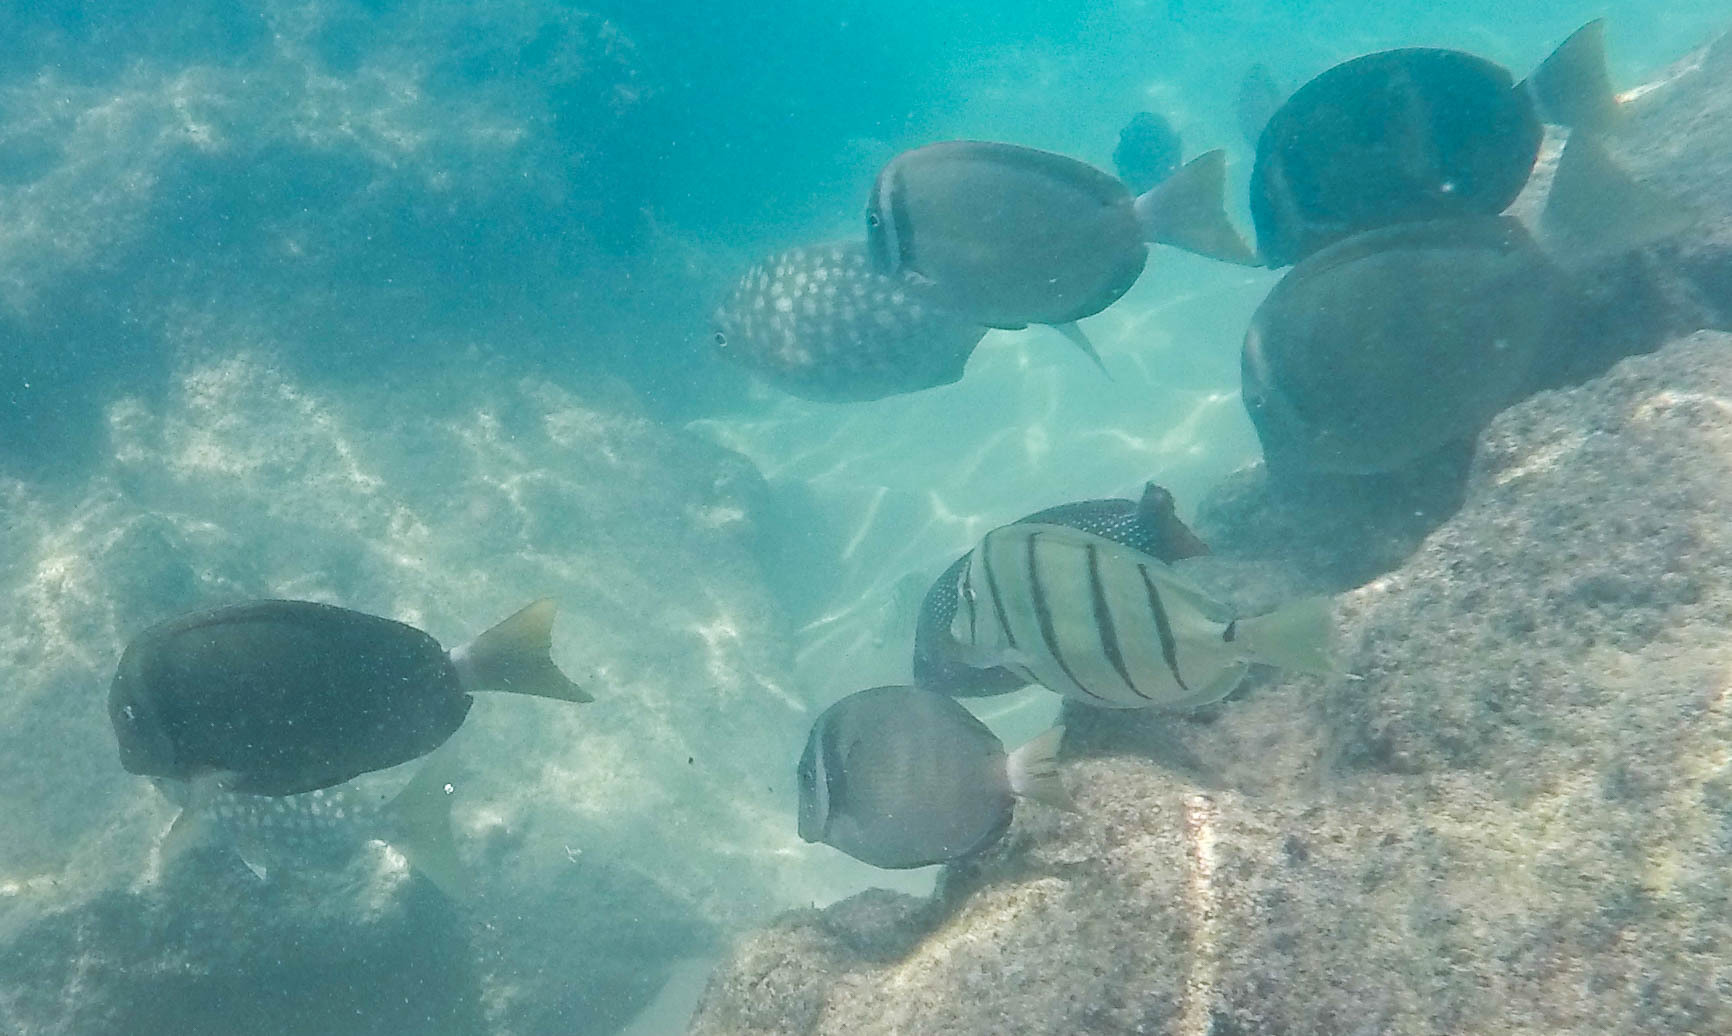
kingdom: Animalia
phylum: Chordata
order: Perciformes
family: Acanthuridae
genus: Acanthurus
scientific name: Acanthurus triostegus
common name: Convict surgeonfish
